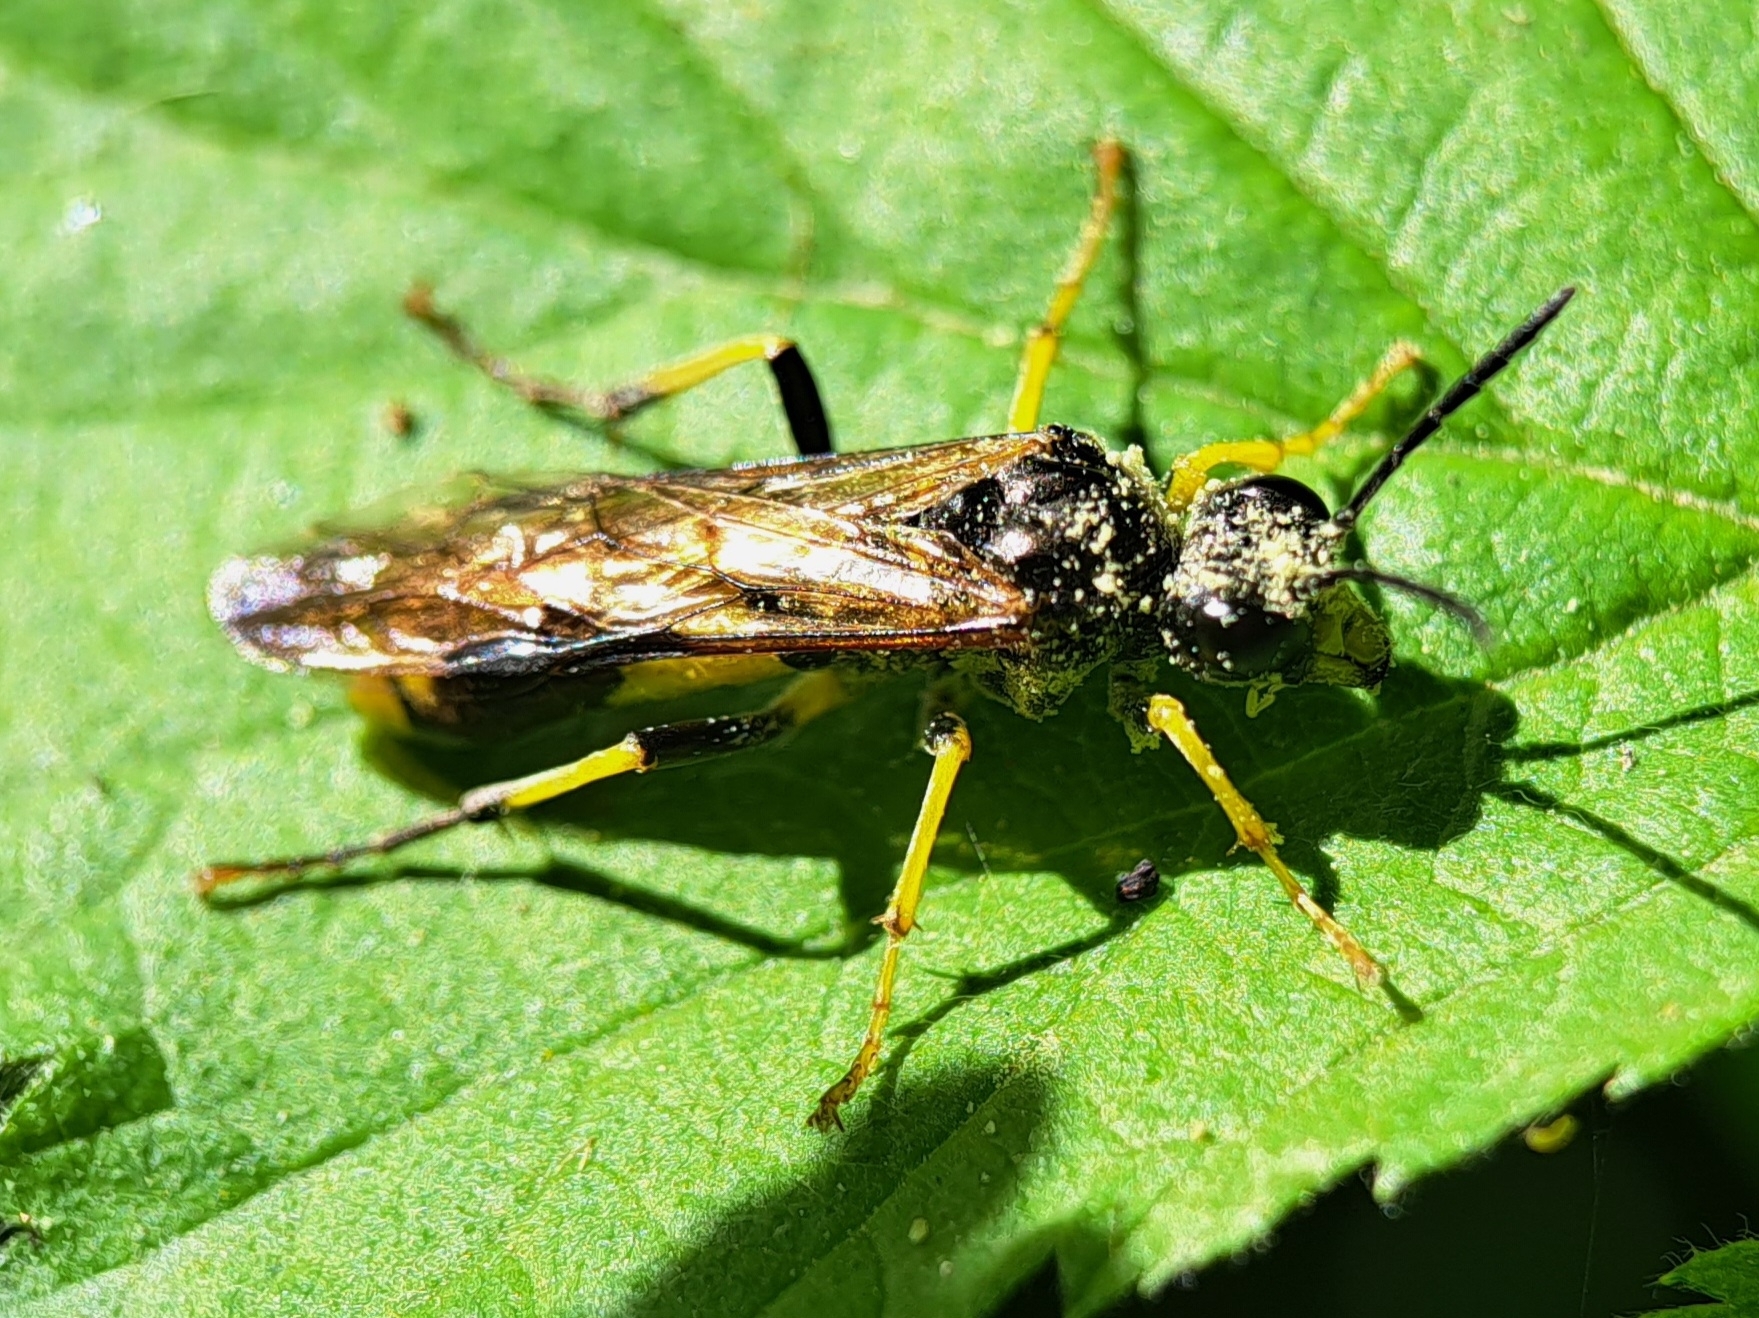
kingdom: Animalia
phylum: Arthropoda
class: Insecta
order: Hymenoptera
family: Tenthredinidae
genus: Tenthredo
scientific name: Tenthredo temula
